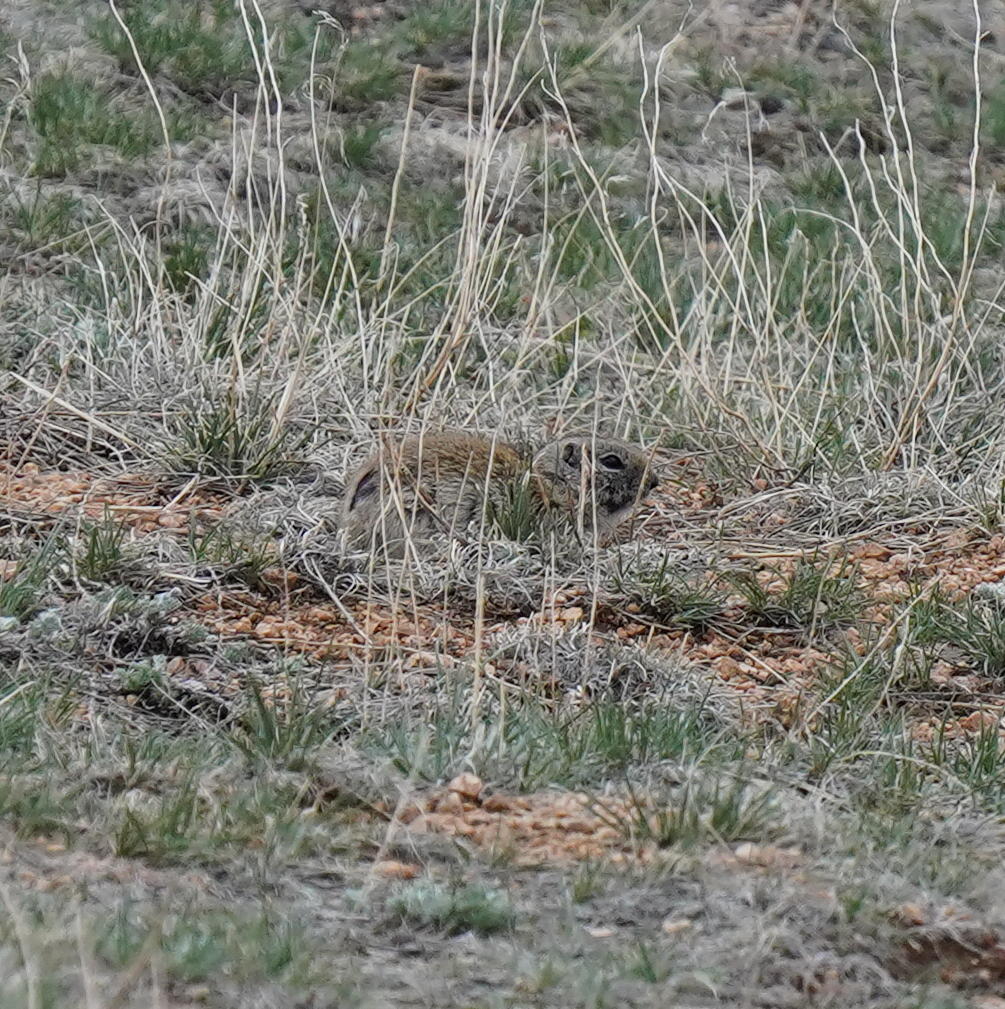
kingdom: Animalia
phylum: Chordata
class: Mammalia
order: Rodentia
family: Sciuridae
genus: Urocitellus
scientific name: Urocitellus elegans
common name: Wyoming ground squirrel
